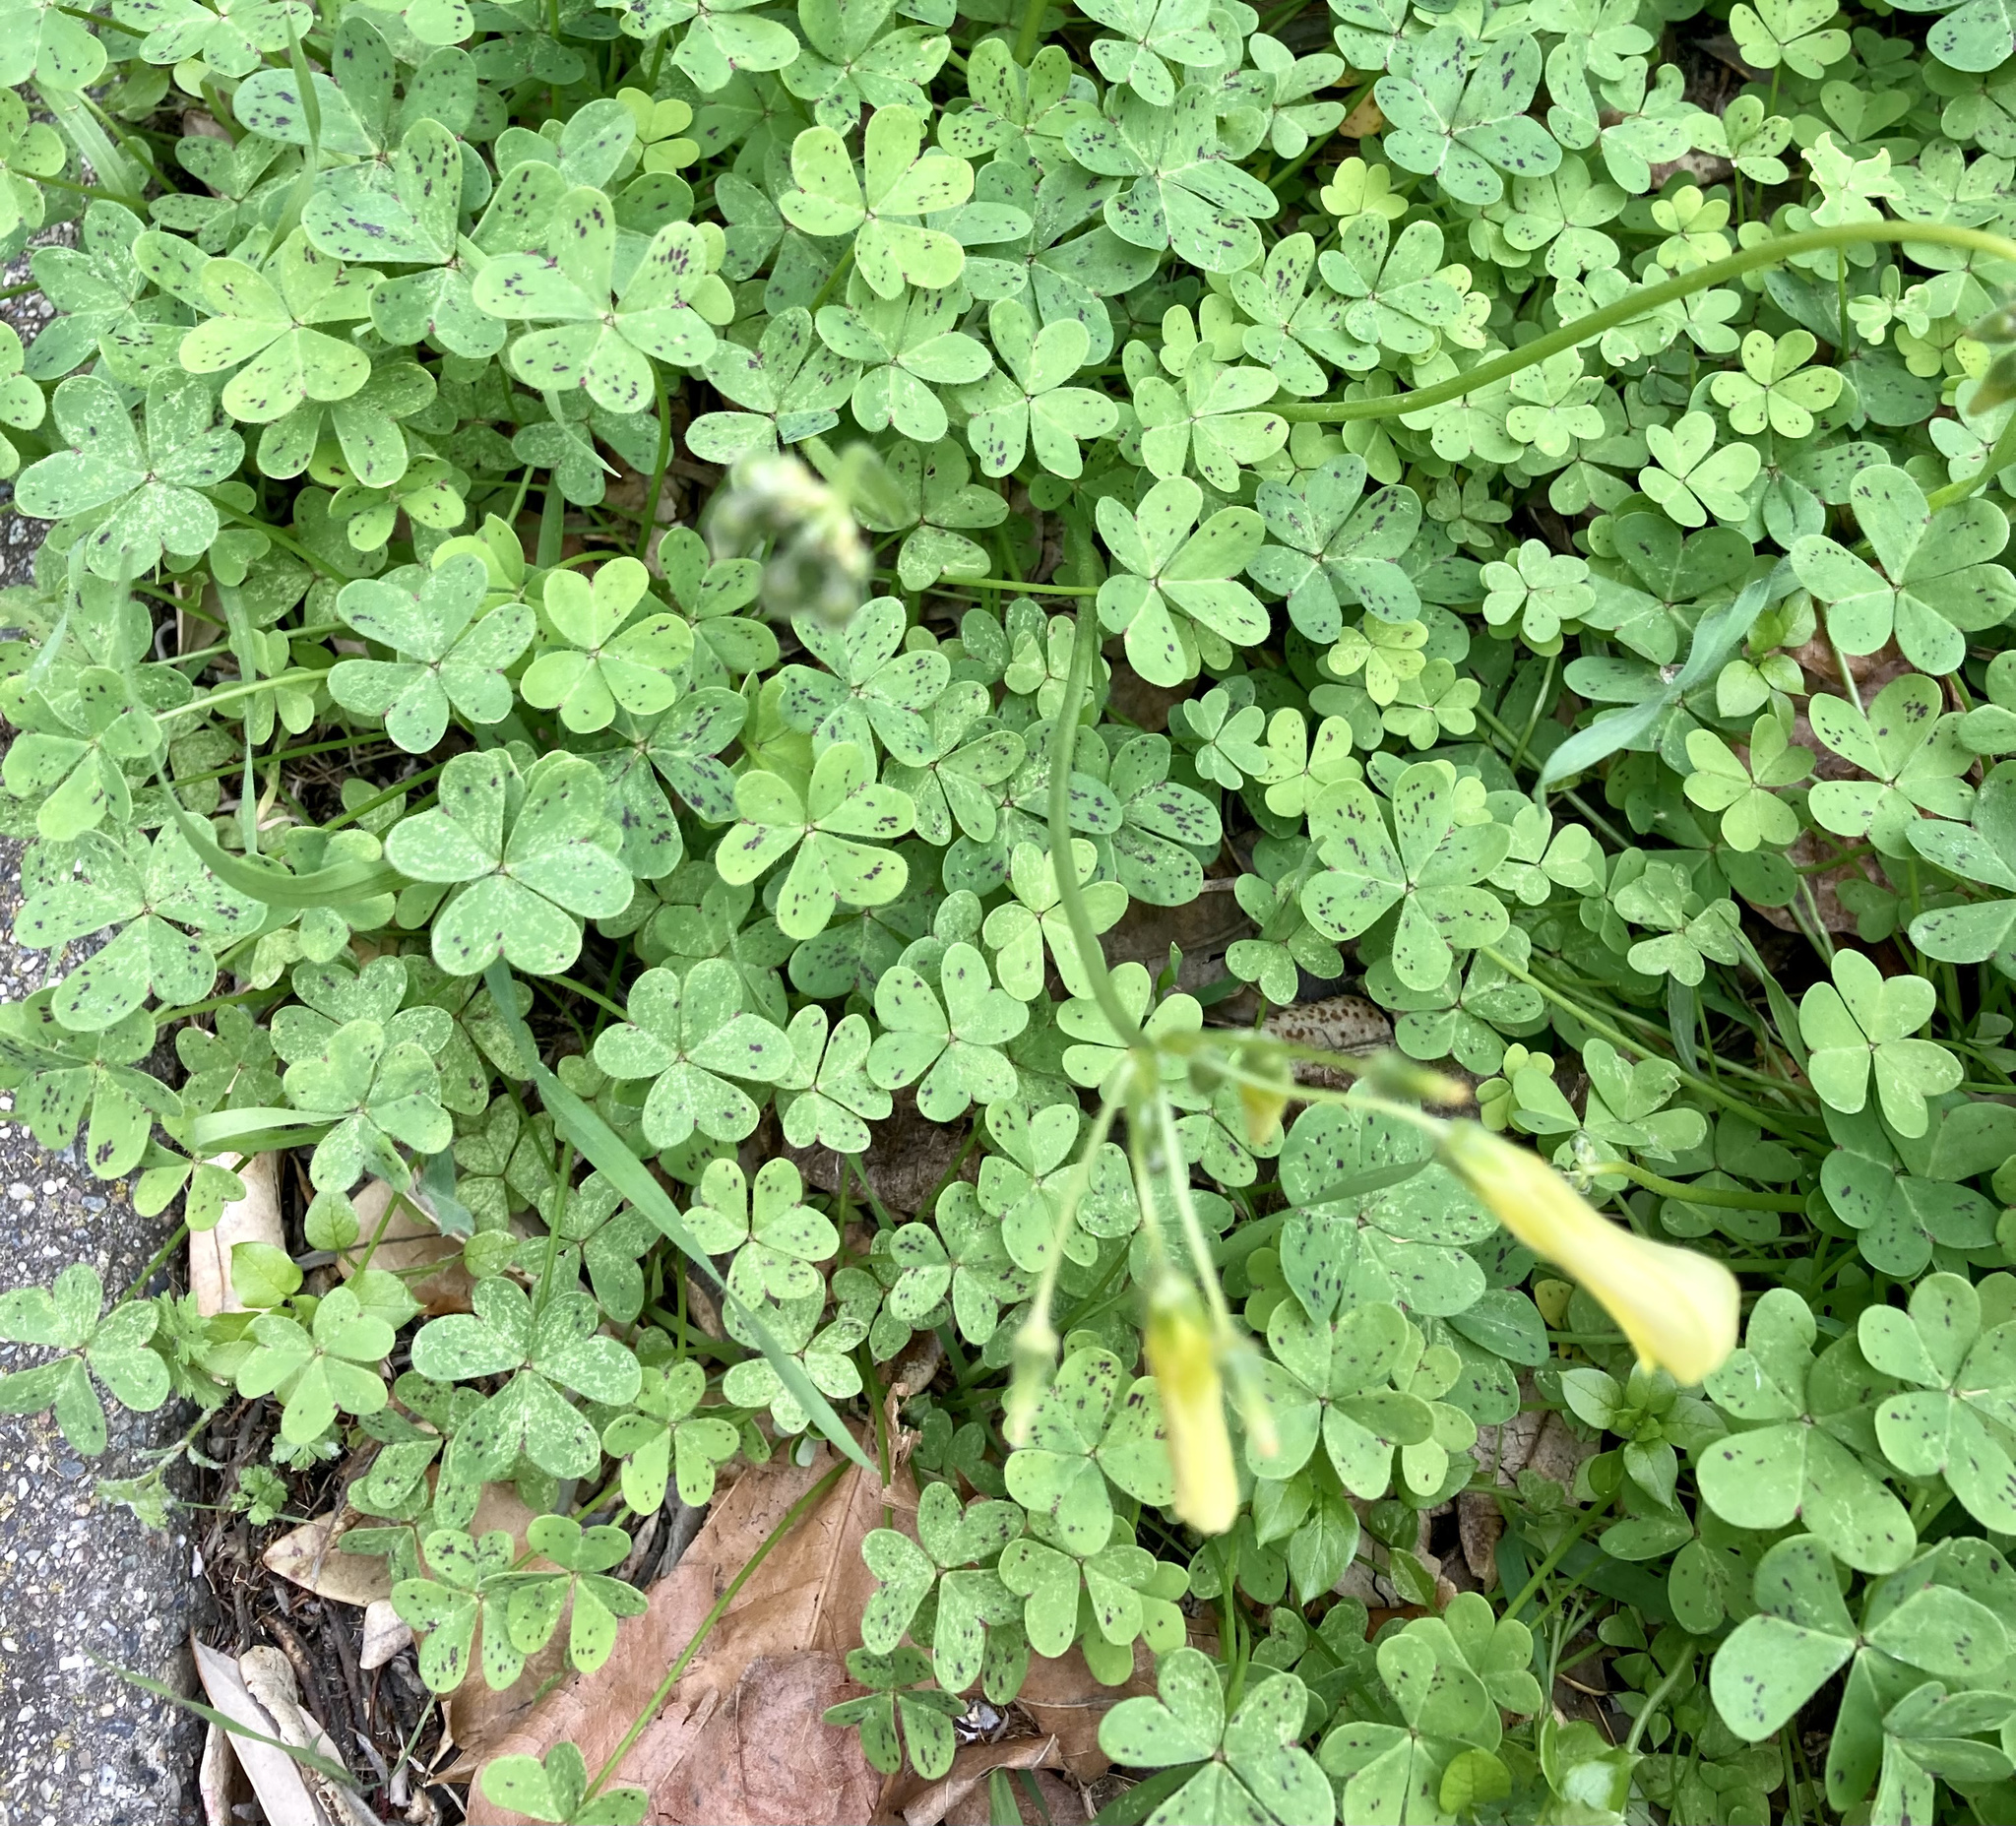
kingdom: Plantae
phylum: Tracheophyta
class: Magnoliopsida
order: Oxalidales
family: Oxalidaceae
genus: Oxalis
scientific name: Oxalis pes-caprae
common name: Bermuda-buttercup
